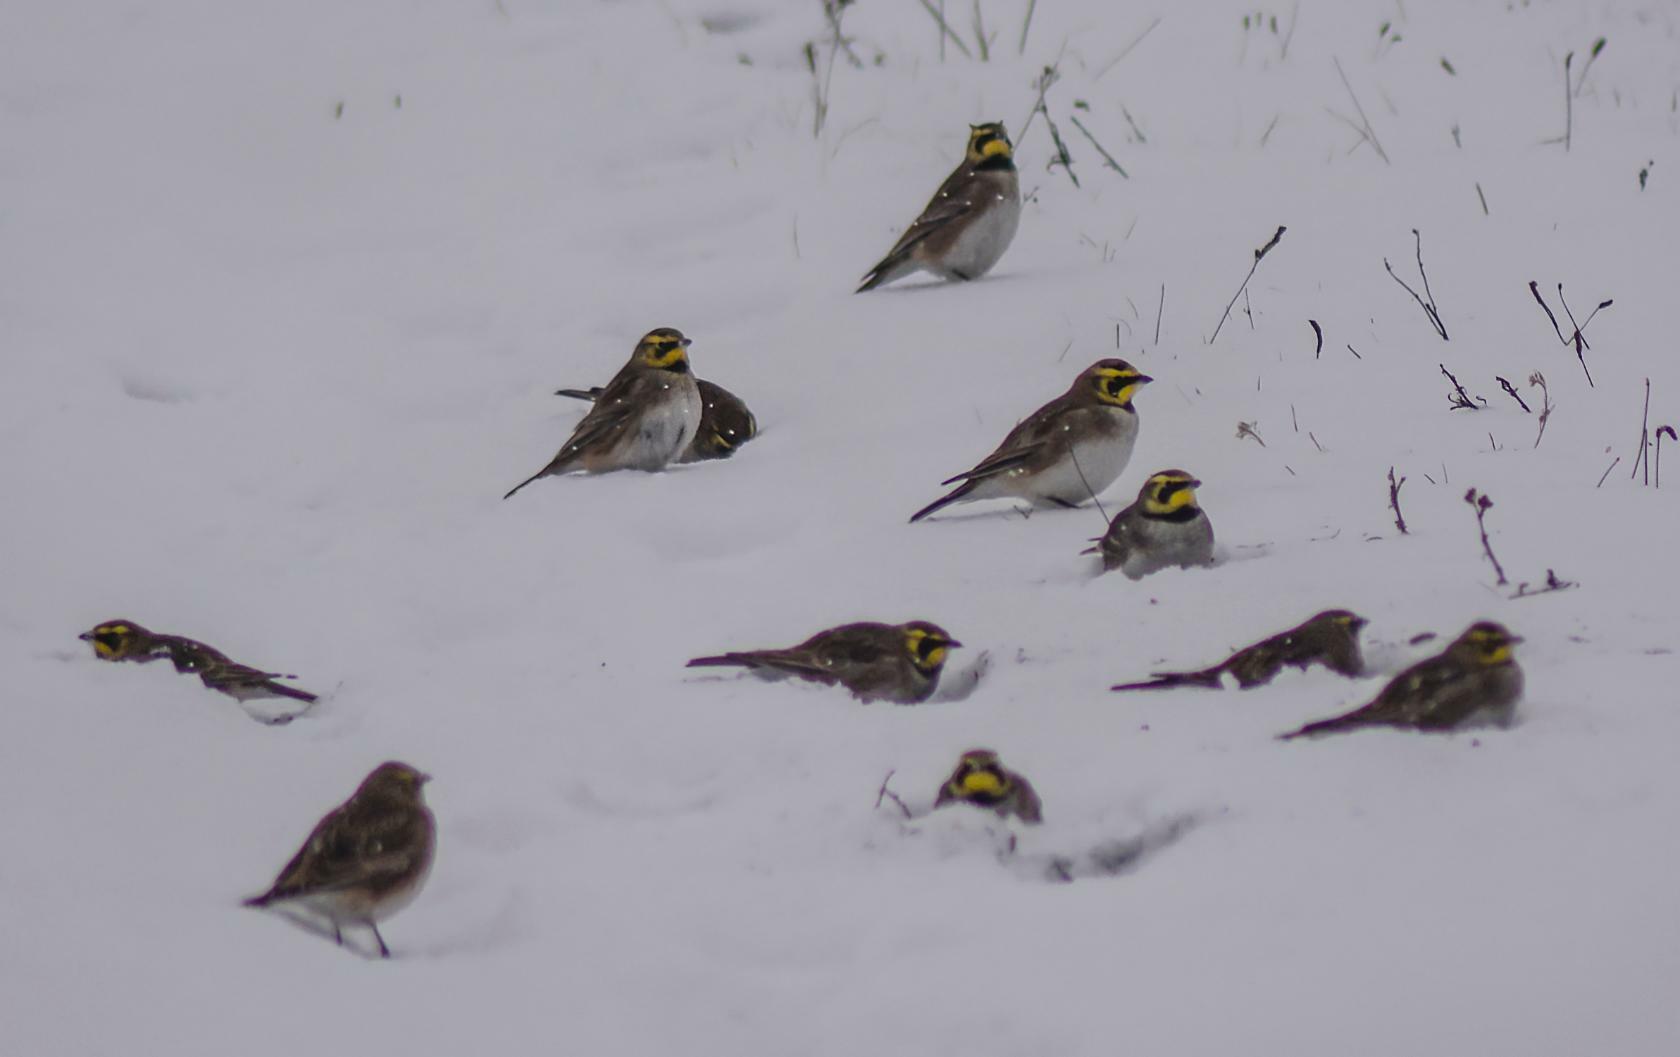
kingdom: Animalia
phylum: Chordata
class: Aves
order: Passeriformes
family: Alaudidae
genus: Eremophila
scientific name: Eremophila alpestris
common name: Horned lark
